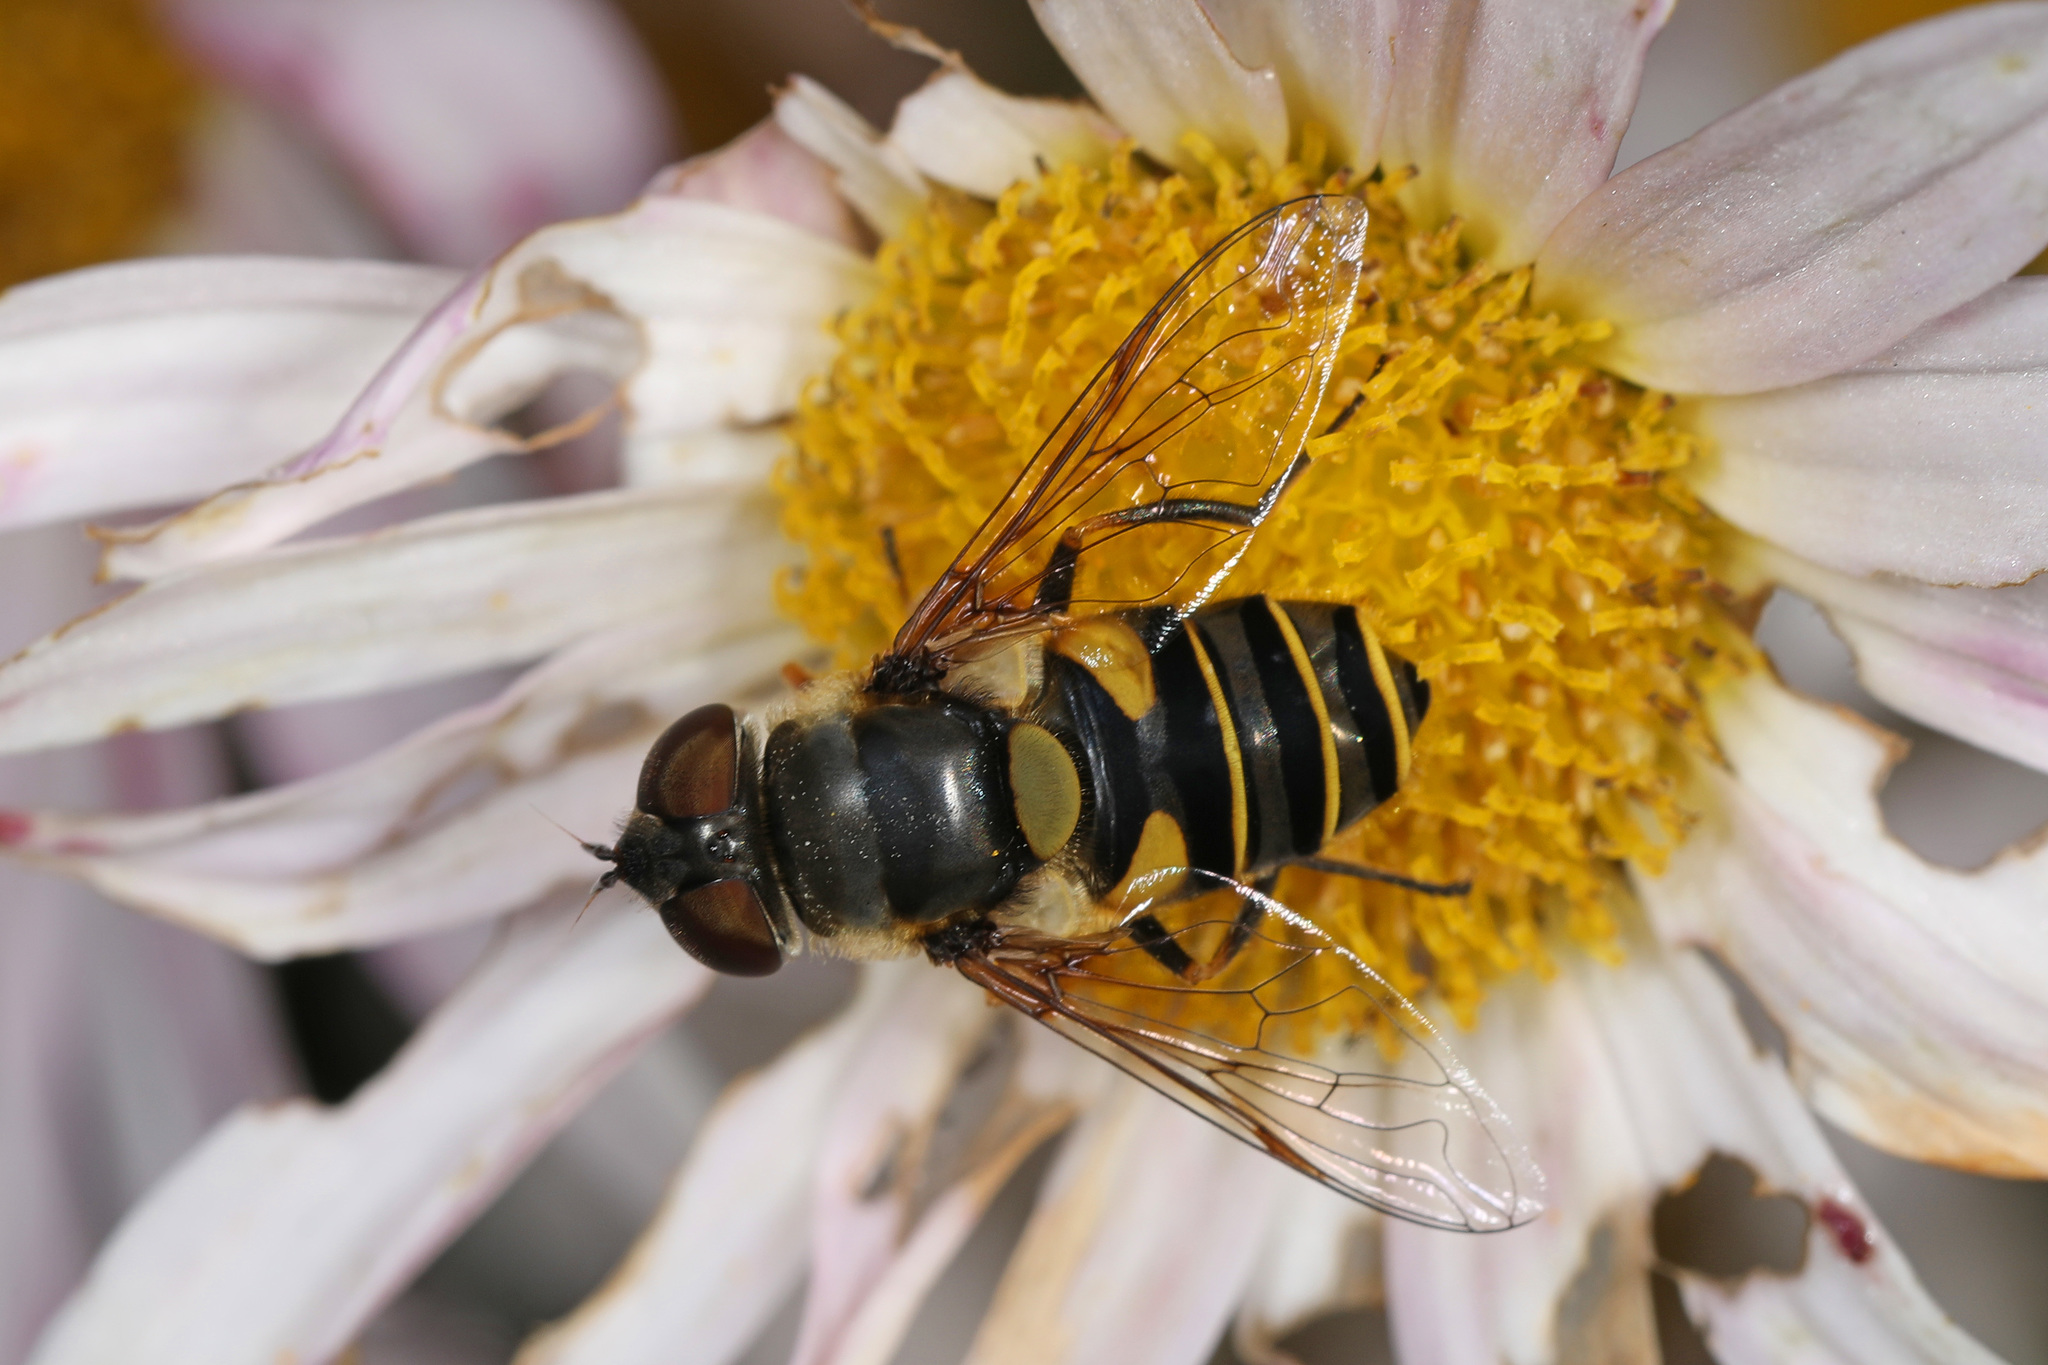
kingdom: Animalia
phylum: Arthropoda
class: Insecta
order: Diptera
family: Syrphidae
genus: Eristalis
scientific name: Eristalis transversa
